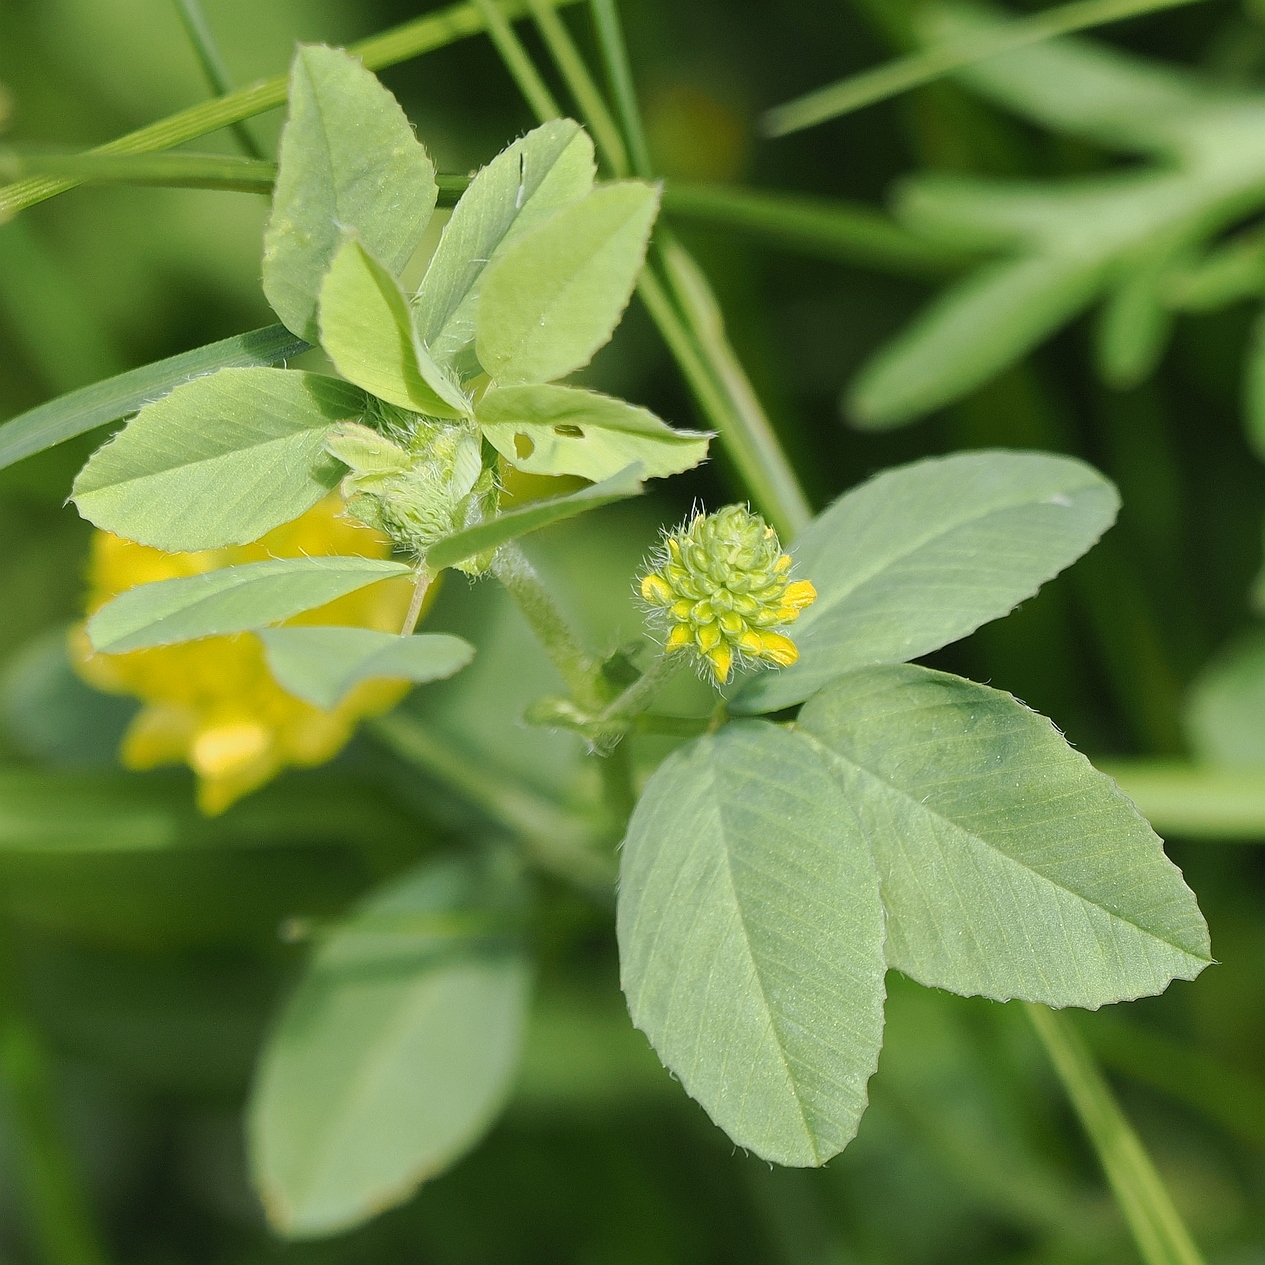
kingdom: Plantae
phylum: Tracheophyta
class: Magnoliopsida
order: Fabales
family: Fabaceae
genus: Trifolium
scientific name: Trifolium campestre
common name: Field clover
